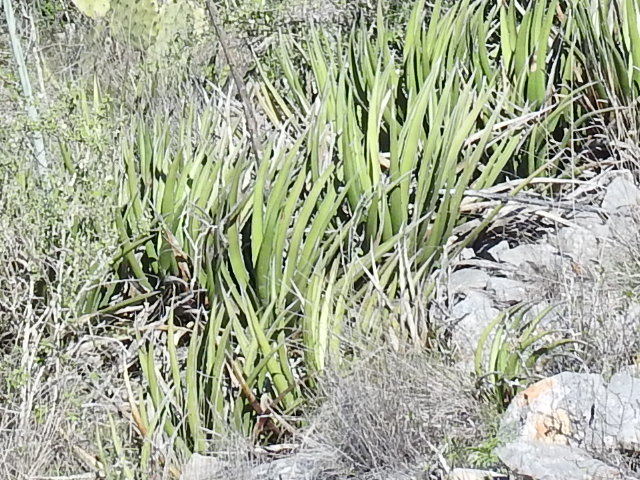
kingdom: Plantae
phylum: Tracheophyta
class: Liliopsida
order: Asparagales
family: Asparagaceae
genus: Agave
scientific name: Agave lechuguilla
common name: Lecheguilla agave
